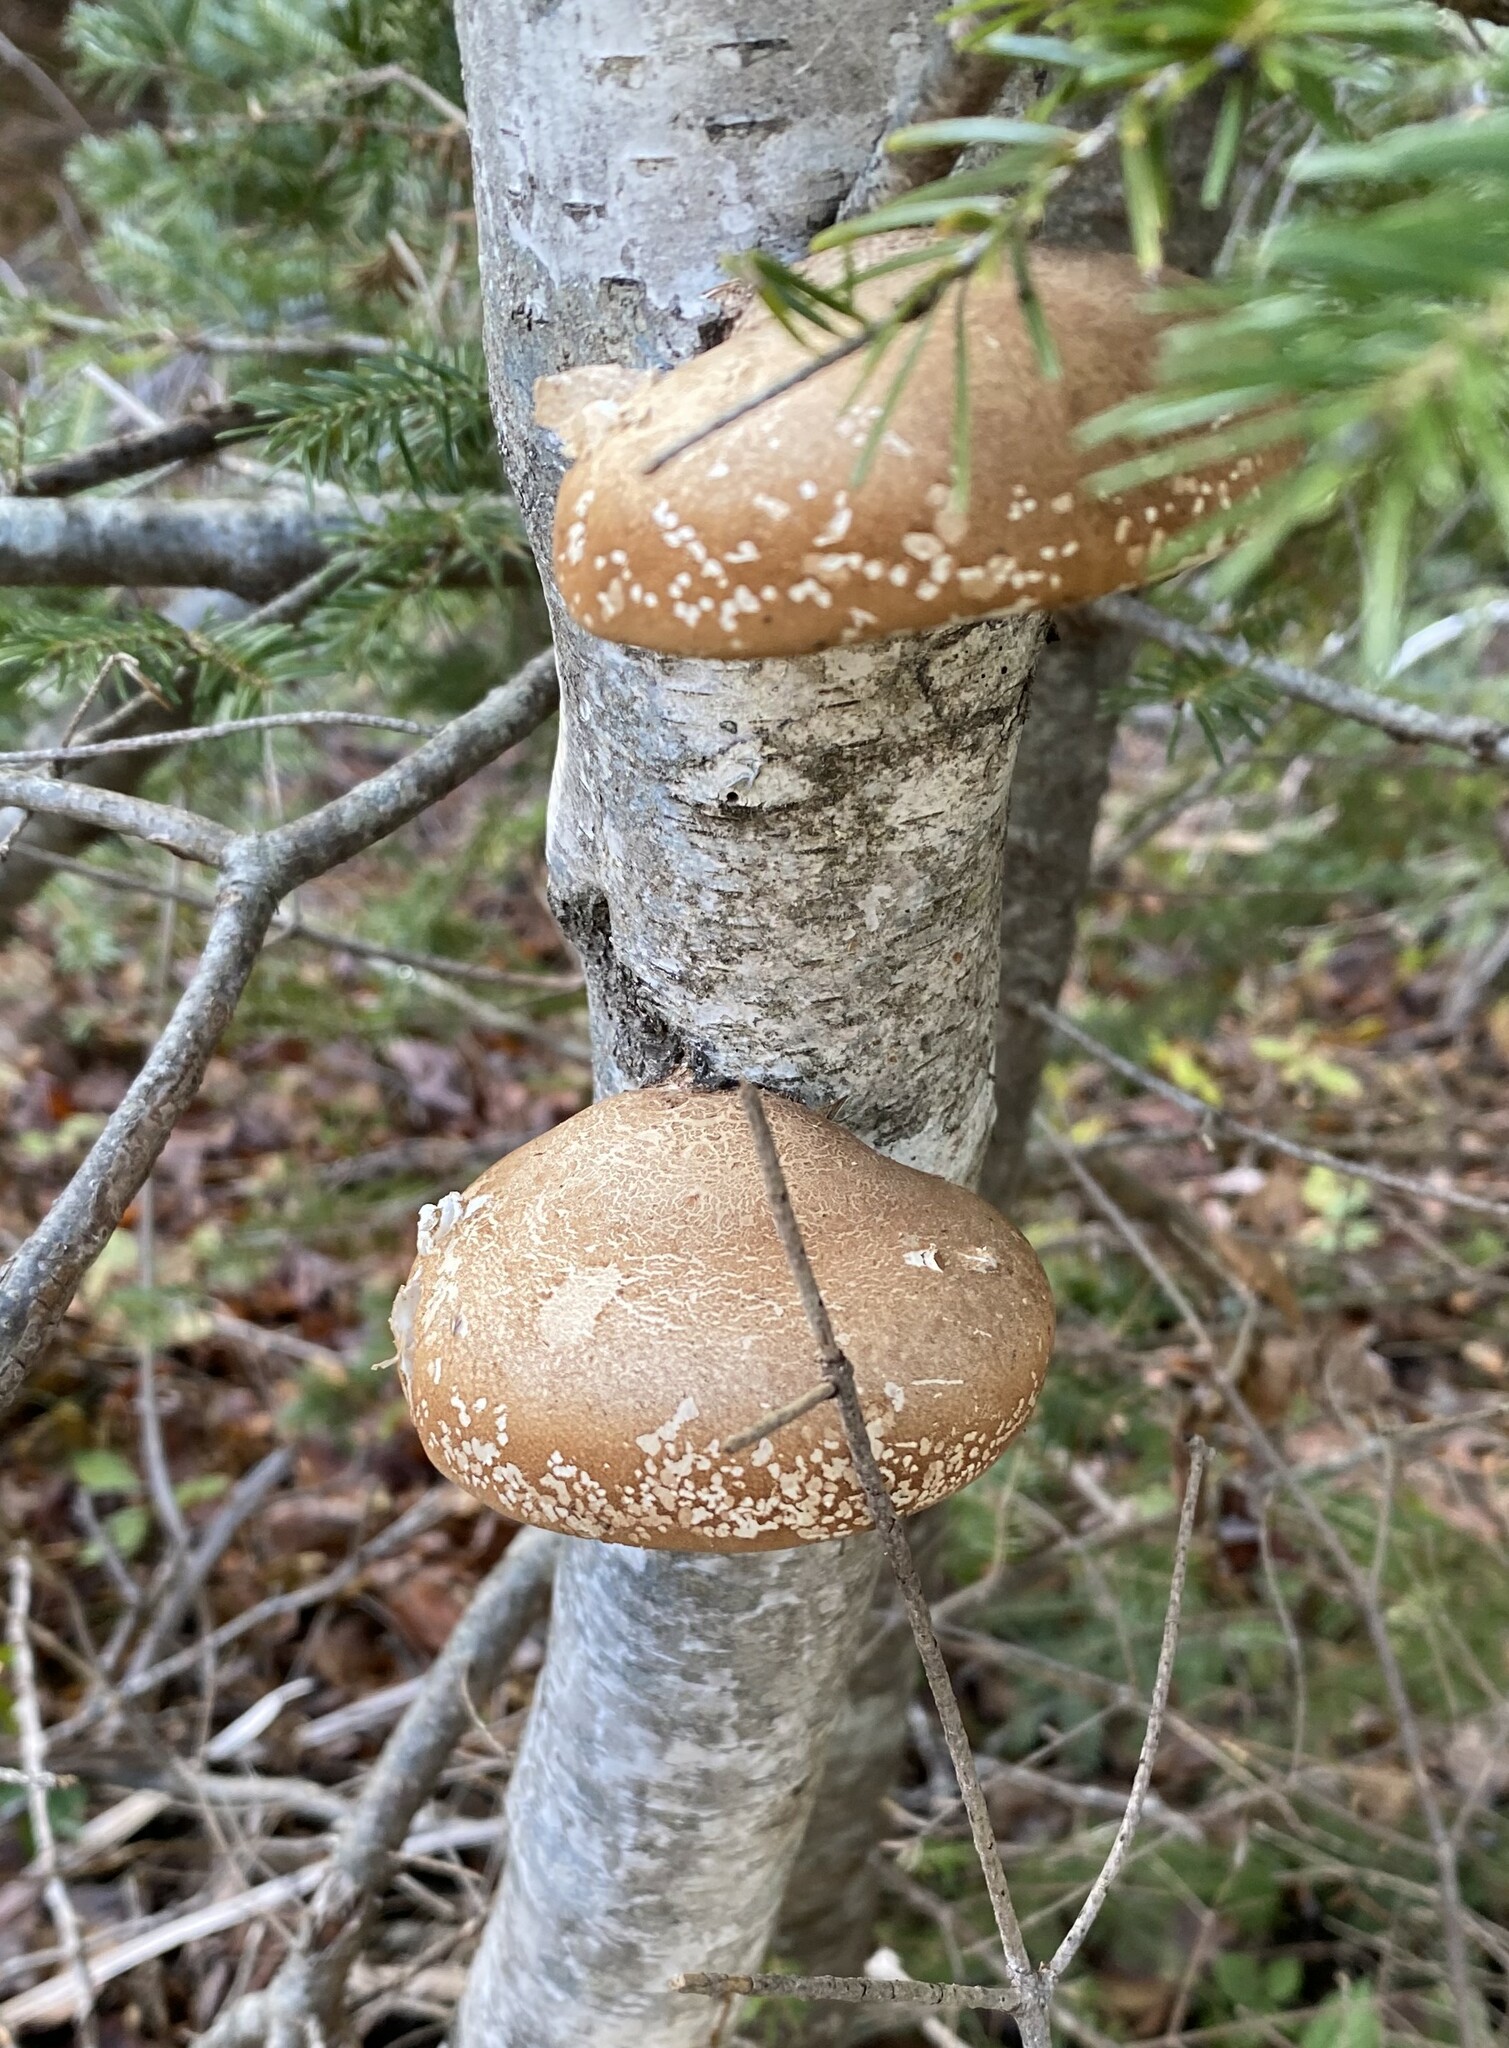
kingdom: Fungi
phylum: Basidiomycota
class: Agaricomycetes
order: Polyporales
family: Fomitopsidaceae
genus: Fomitopsis
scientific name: Fomitopsis betulina
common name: Birch polypore
